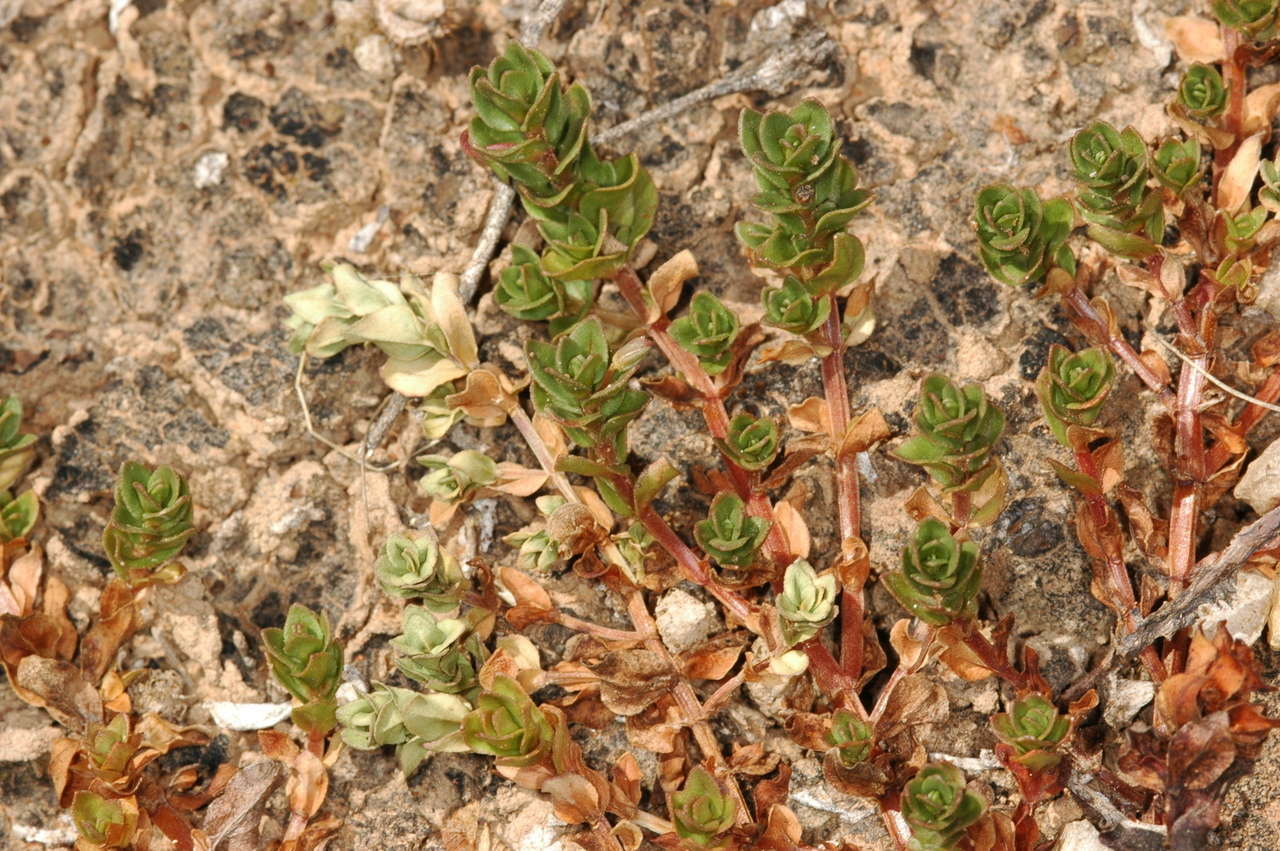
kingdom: Plantae
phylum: Tracheophyta
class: Magnoliopsida
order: Ericales
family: Primulaceae
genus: Lysimachia
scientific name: Lysimachia arvensis
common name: Scarlet pimpernel
